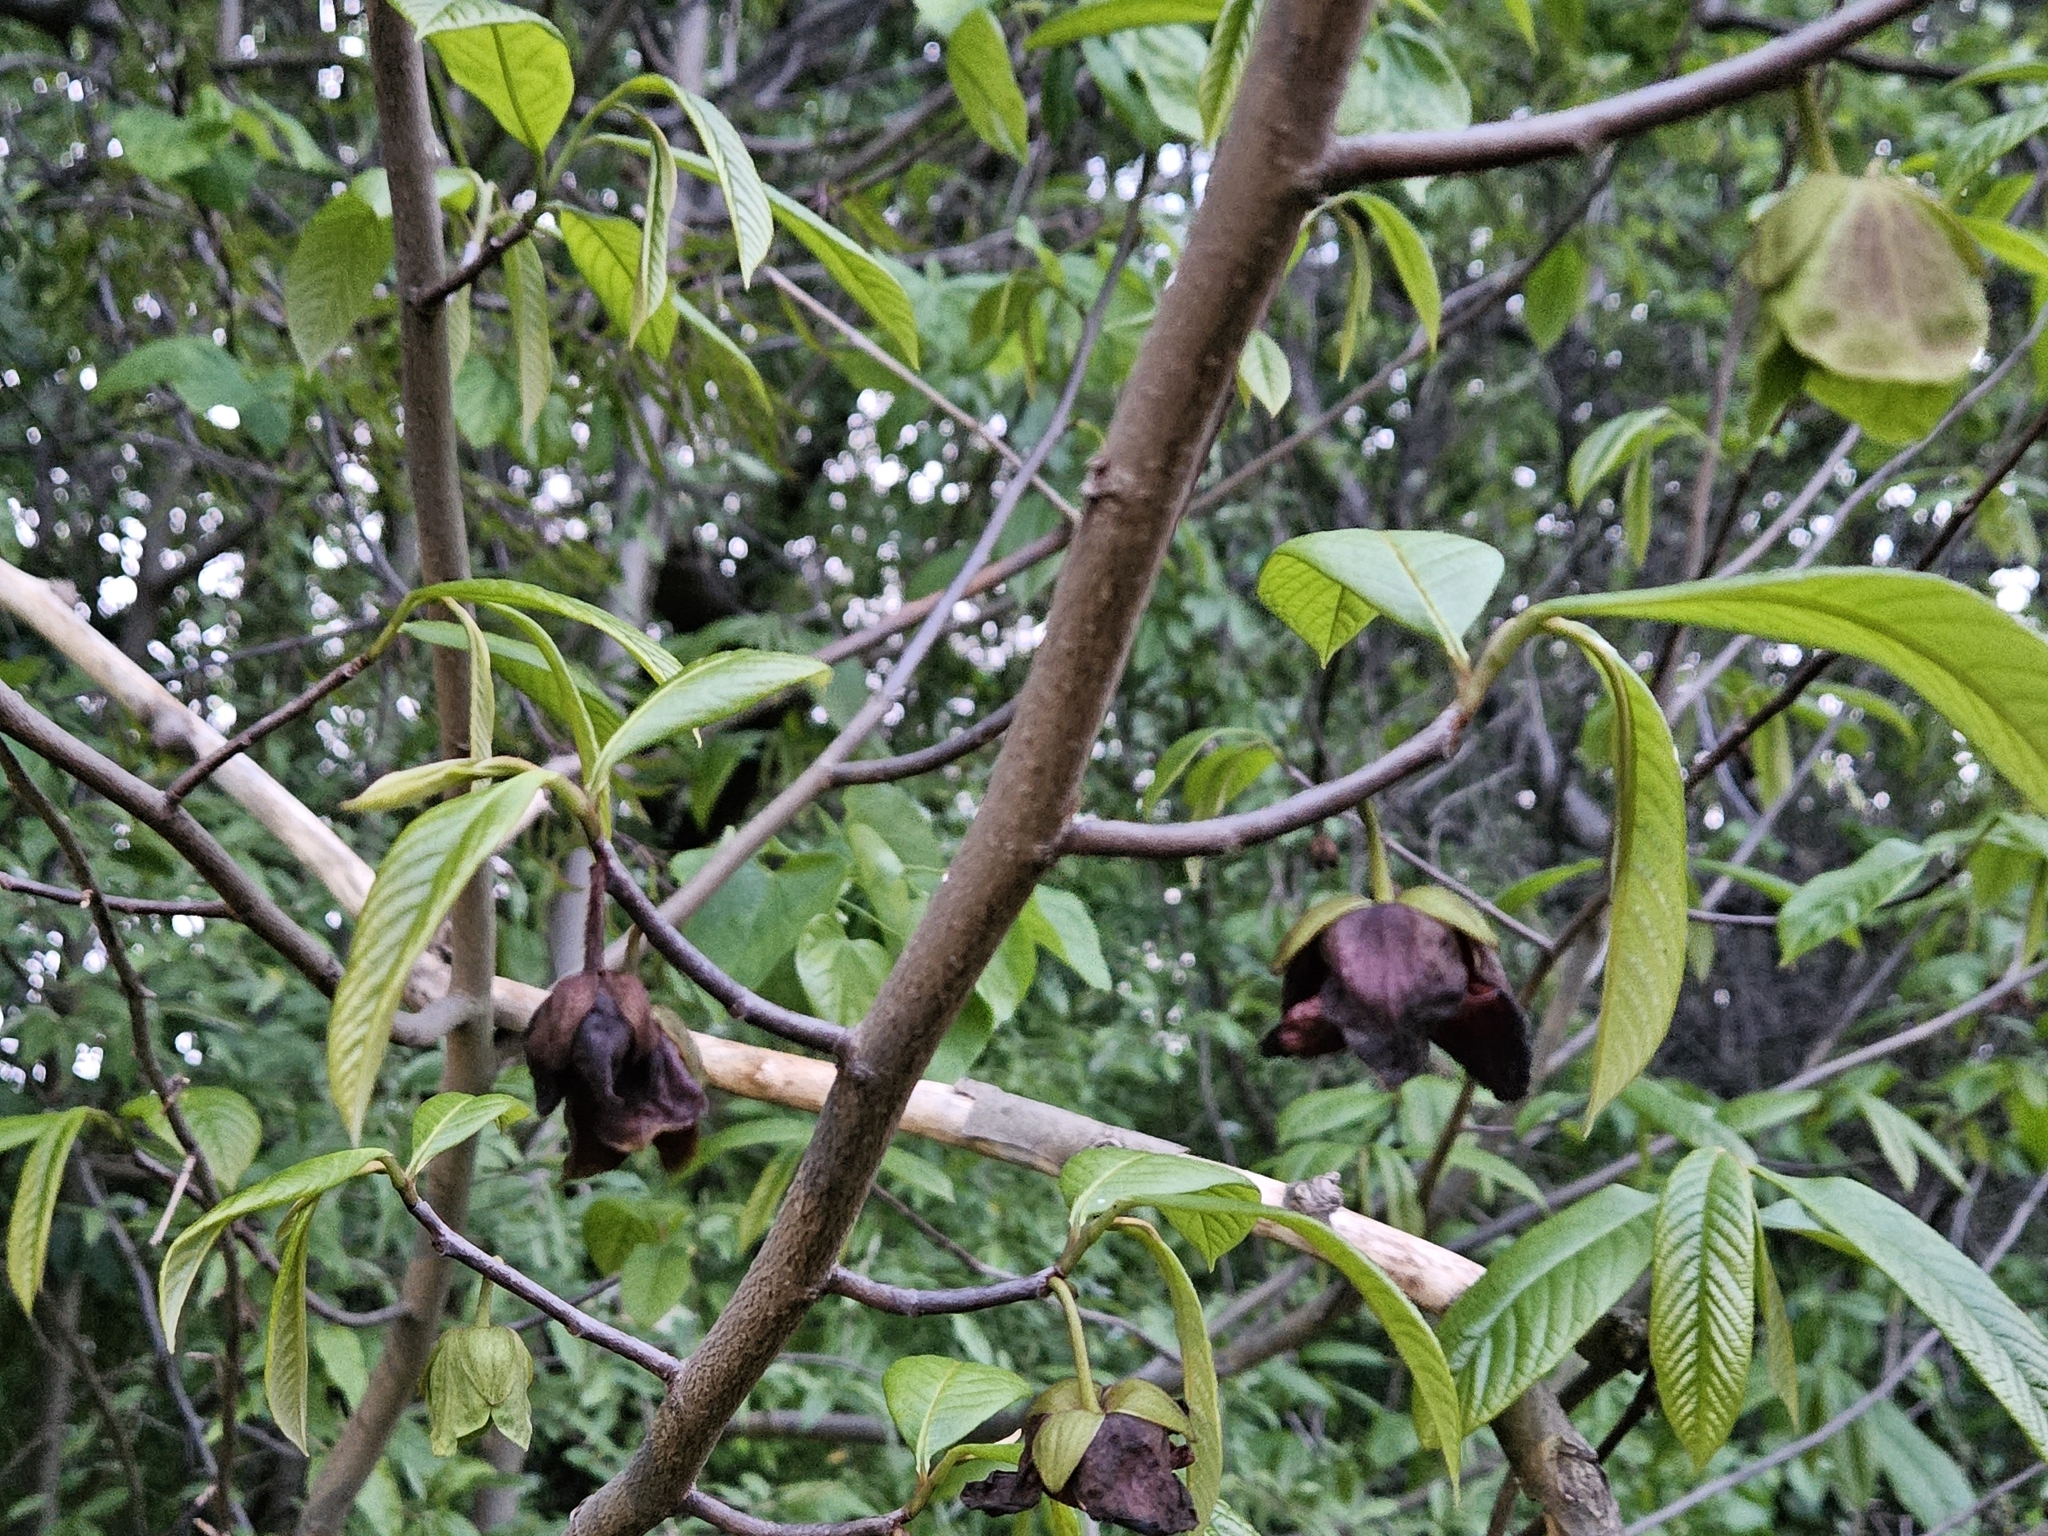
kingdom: Plantae
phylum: Tracheophyta
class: Magnoliopsida
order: Magnoliales
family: Annonaceae
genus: Asimina
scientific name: Asimina triloba
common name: Dog-banana
